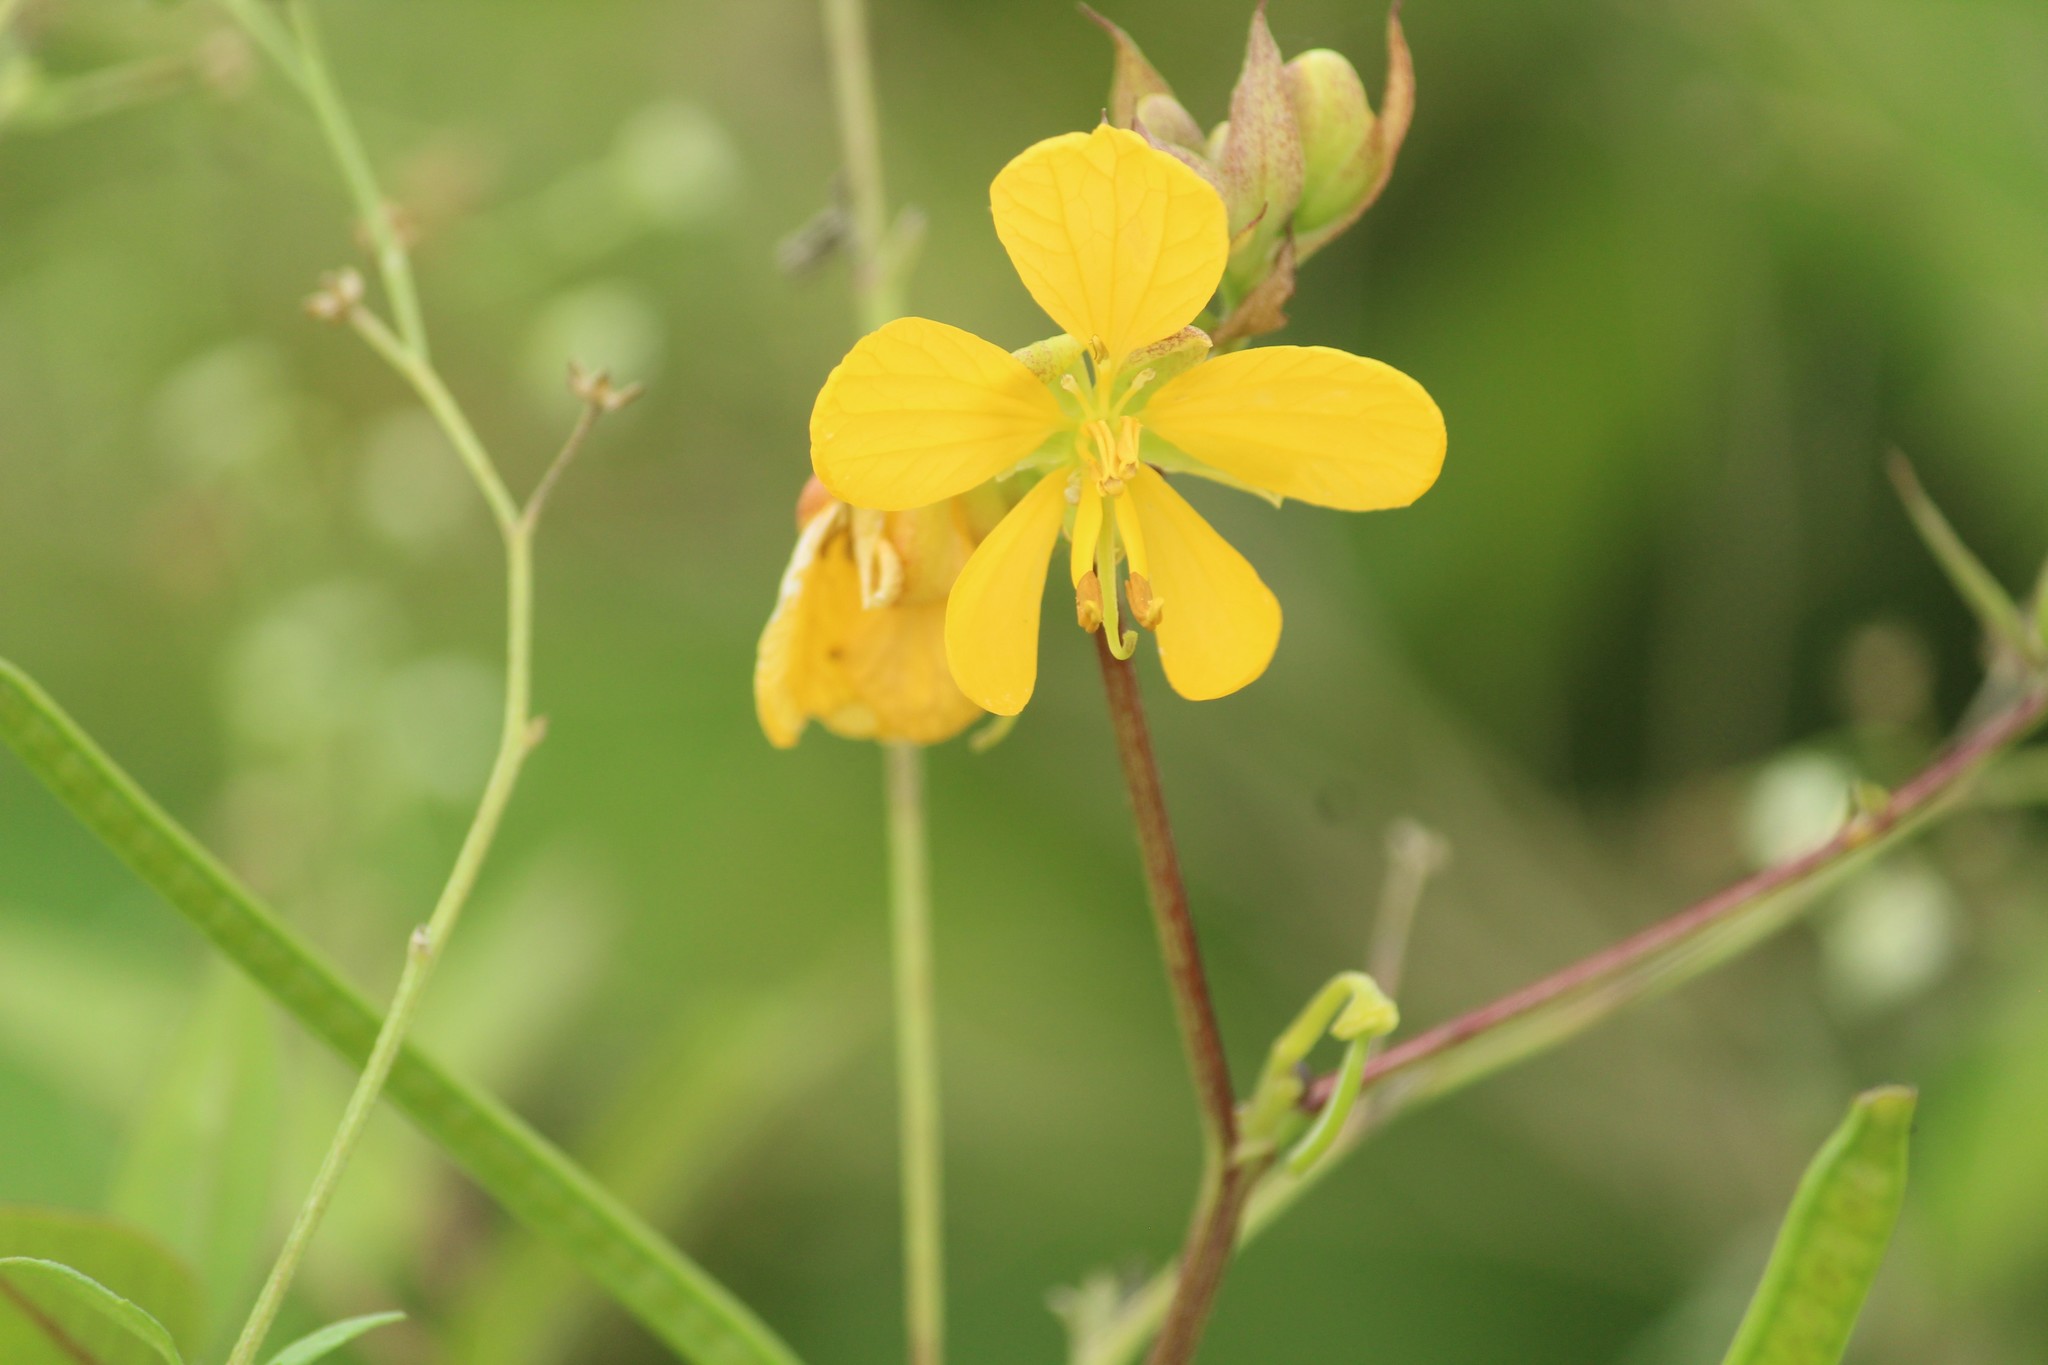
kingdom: Plantae
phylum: Tracheophyta
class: Magnoliopsida
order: Fabales
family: Fabaceae
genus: Senna
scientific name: Senna occidentalis
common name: Septicweed
